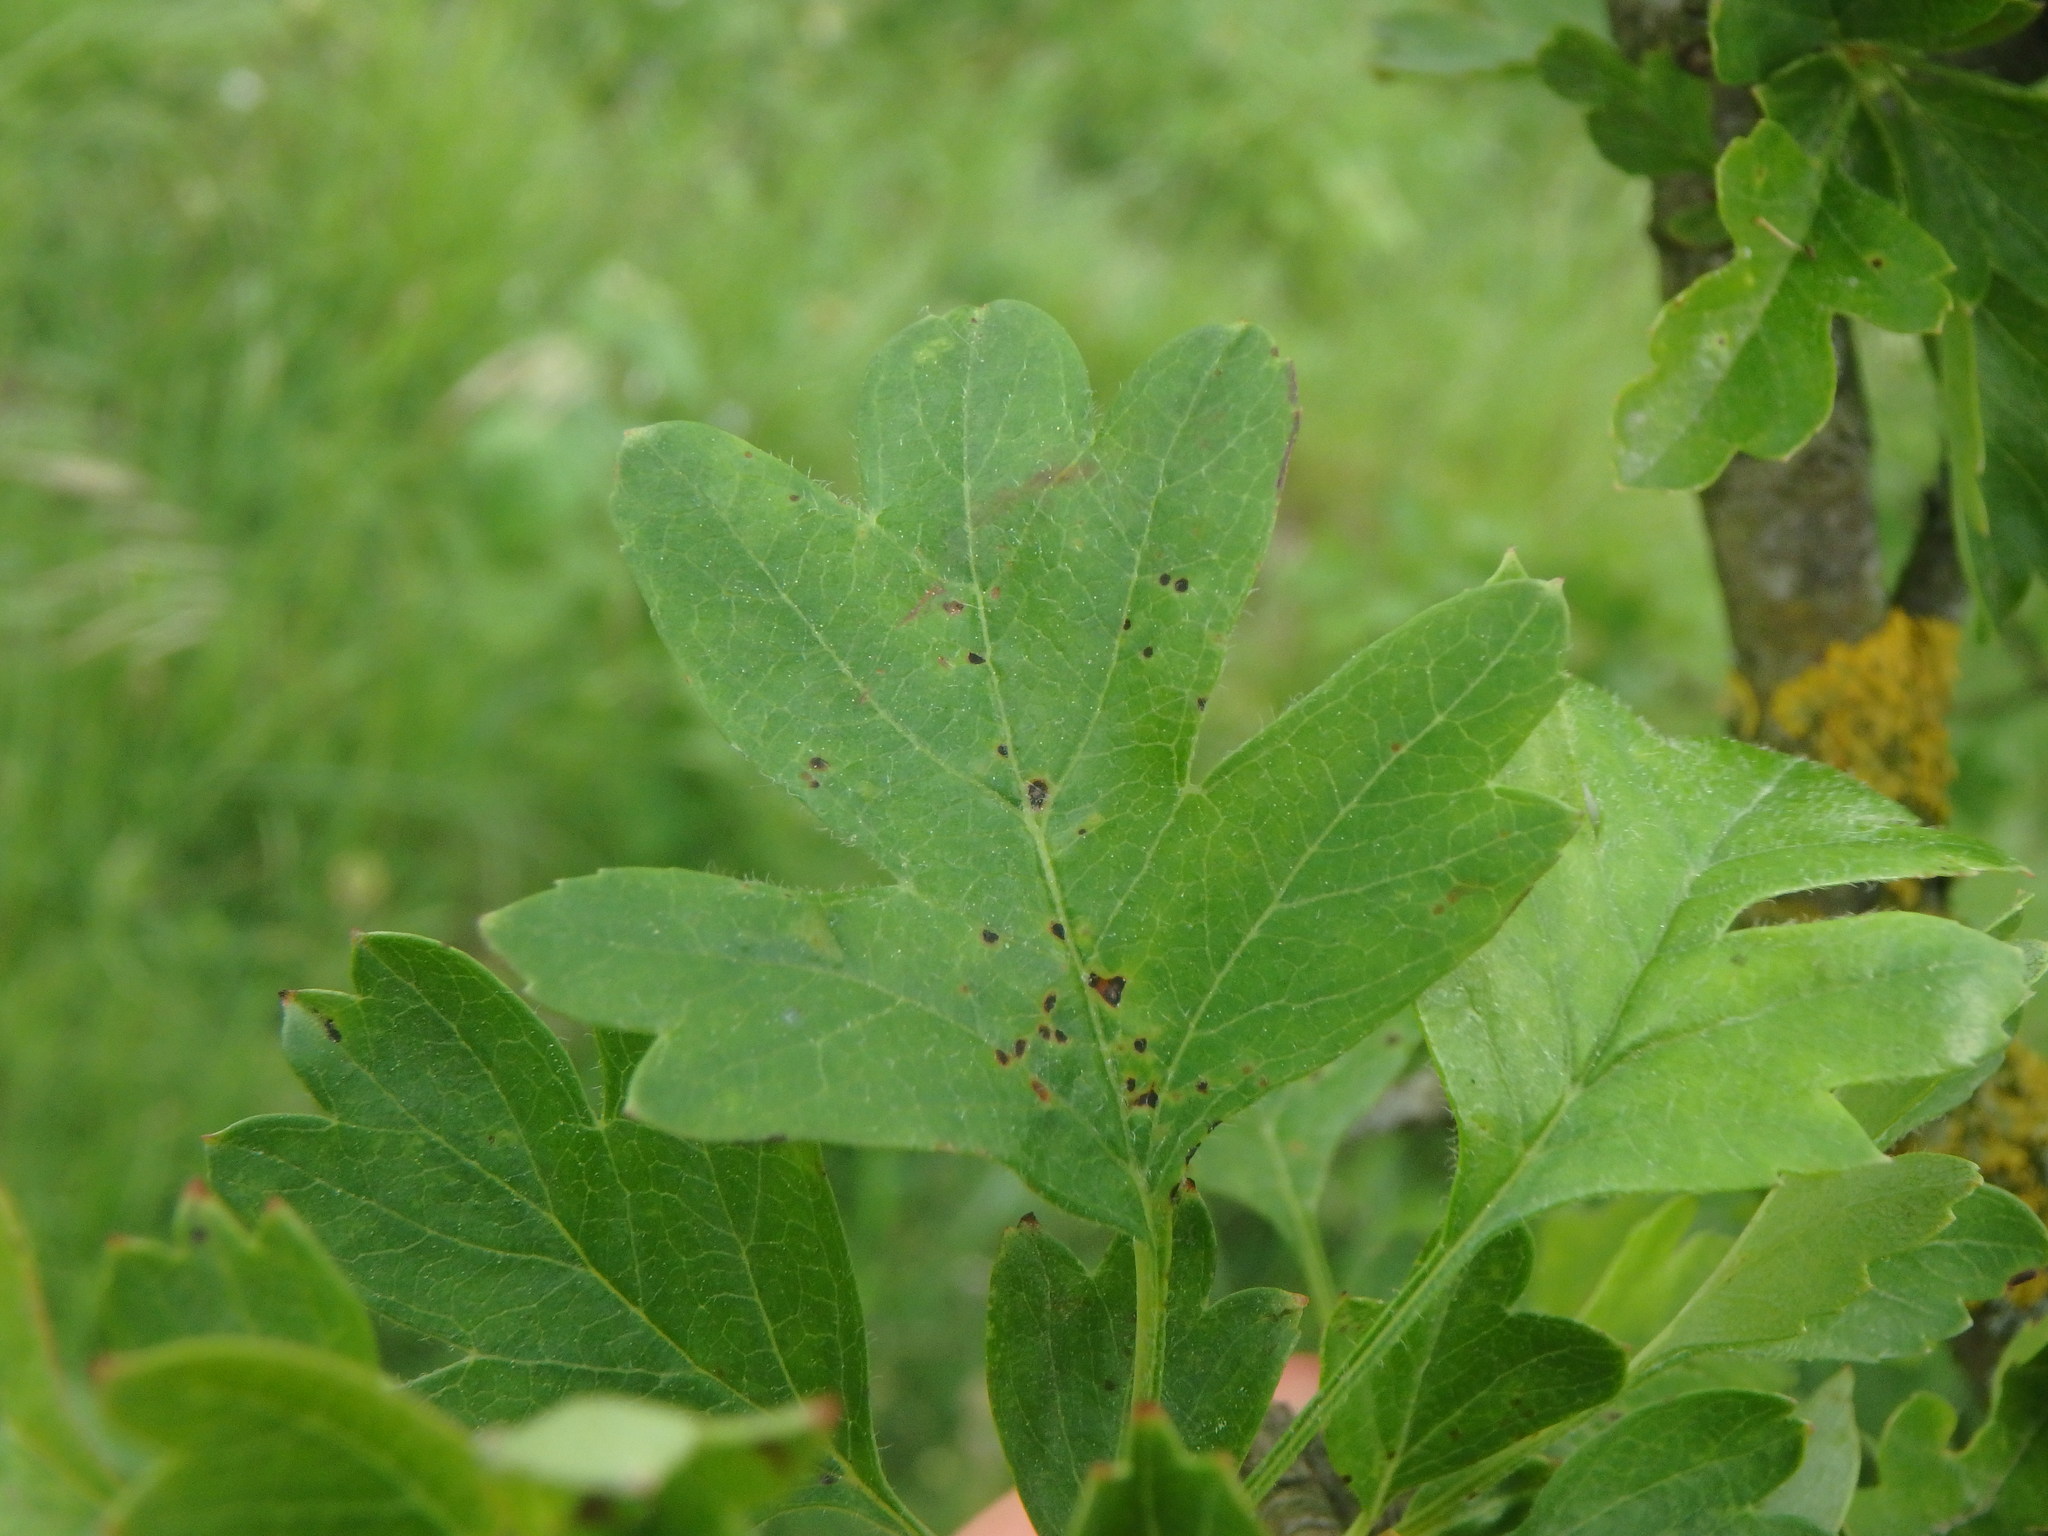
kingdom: Plantae
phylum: Tracheophyta
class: Magnoliopsida
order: Rosales
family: Rosaceae
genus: Crataegus
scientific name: Crataegus monogyna
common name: Hawthorn
